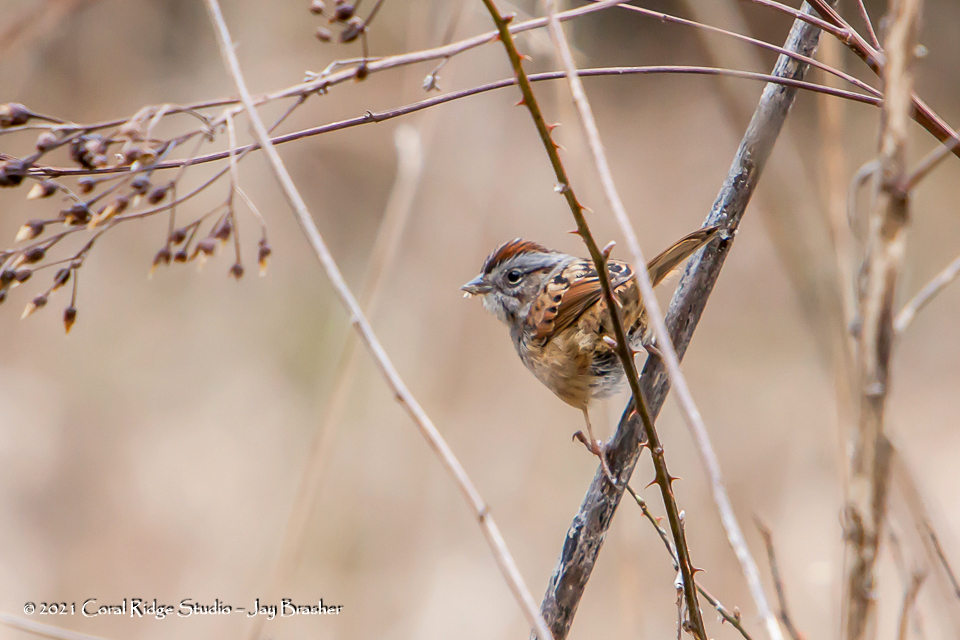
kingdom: Animalia
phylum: Chordata
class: Aves
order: Passeriformes
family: Passerellidae
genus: Melospiza
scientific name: Melospiza georgiana
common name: Swamp sparrow
